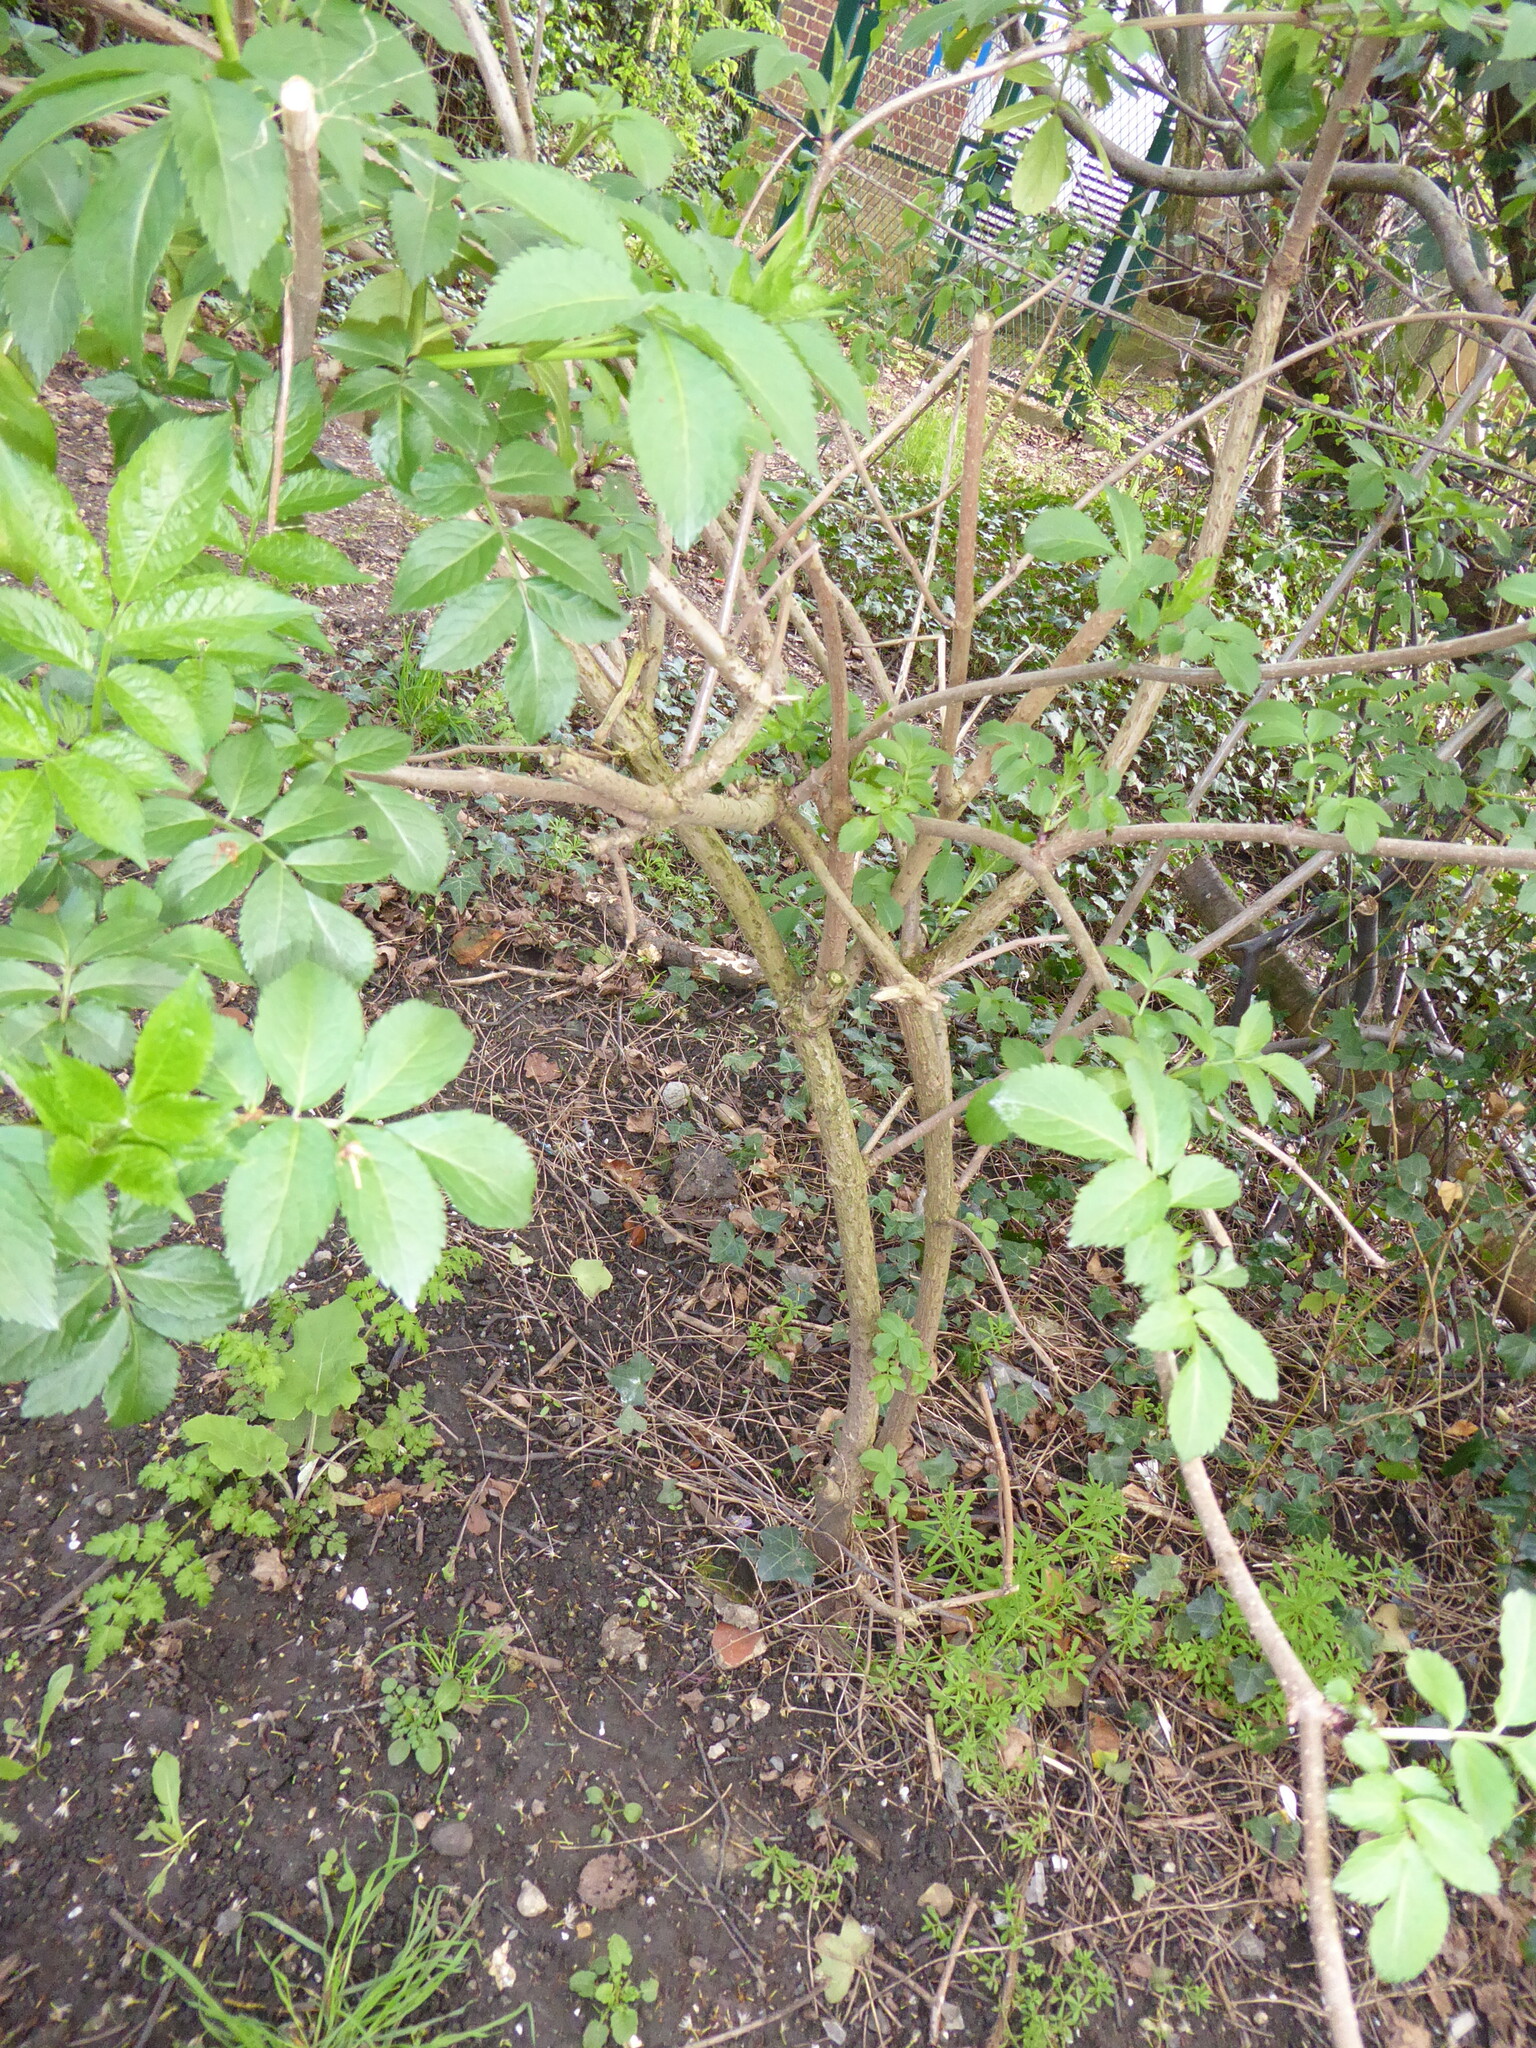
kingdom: Plantae
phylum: Tracheophyta
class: Magnoliopsida
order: Dipsacales
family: Viburnaceae
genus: Sambucus
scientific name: Sambucus nigra
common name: Elder
